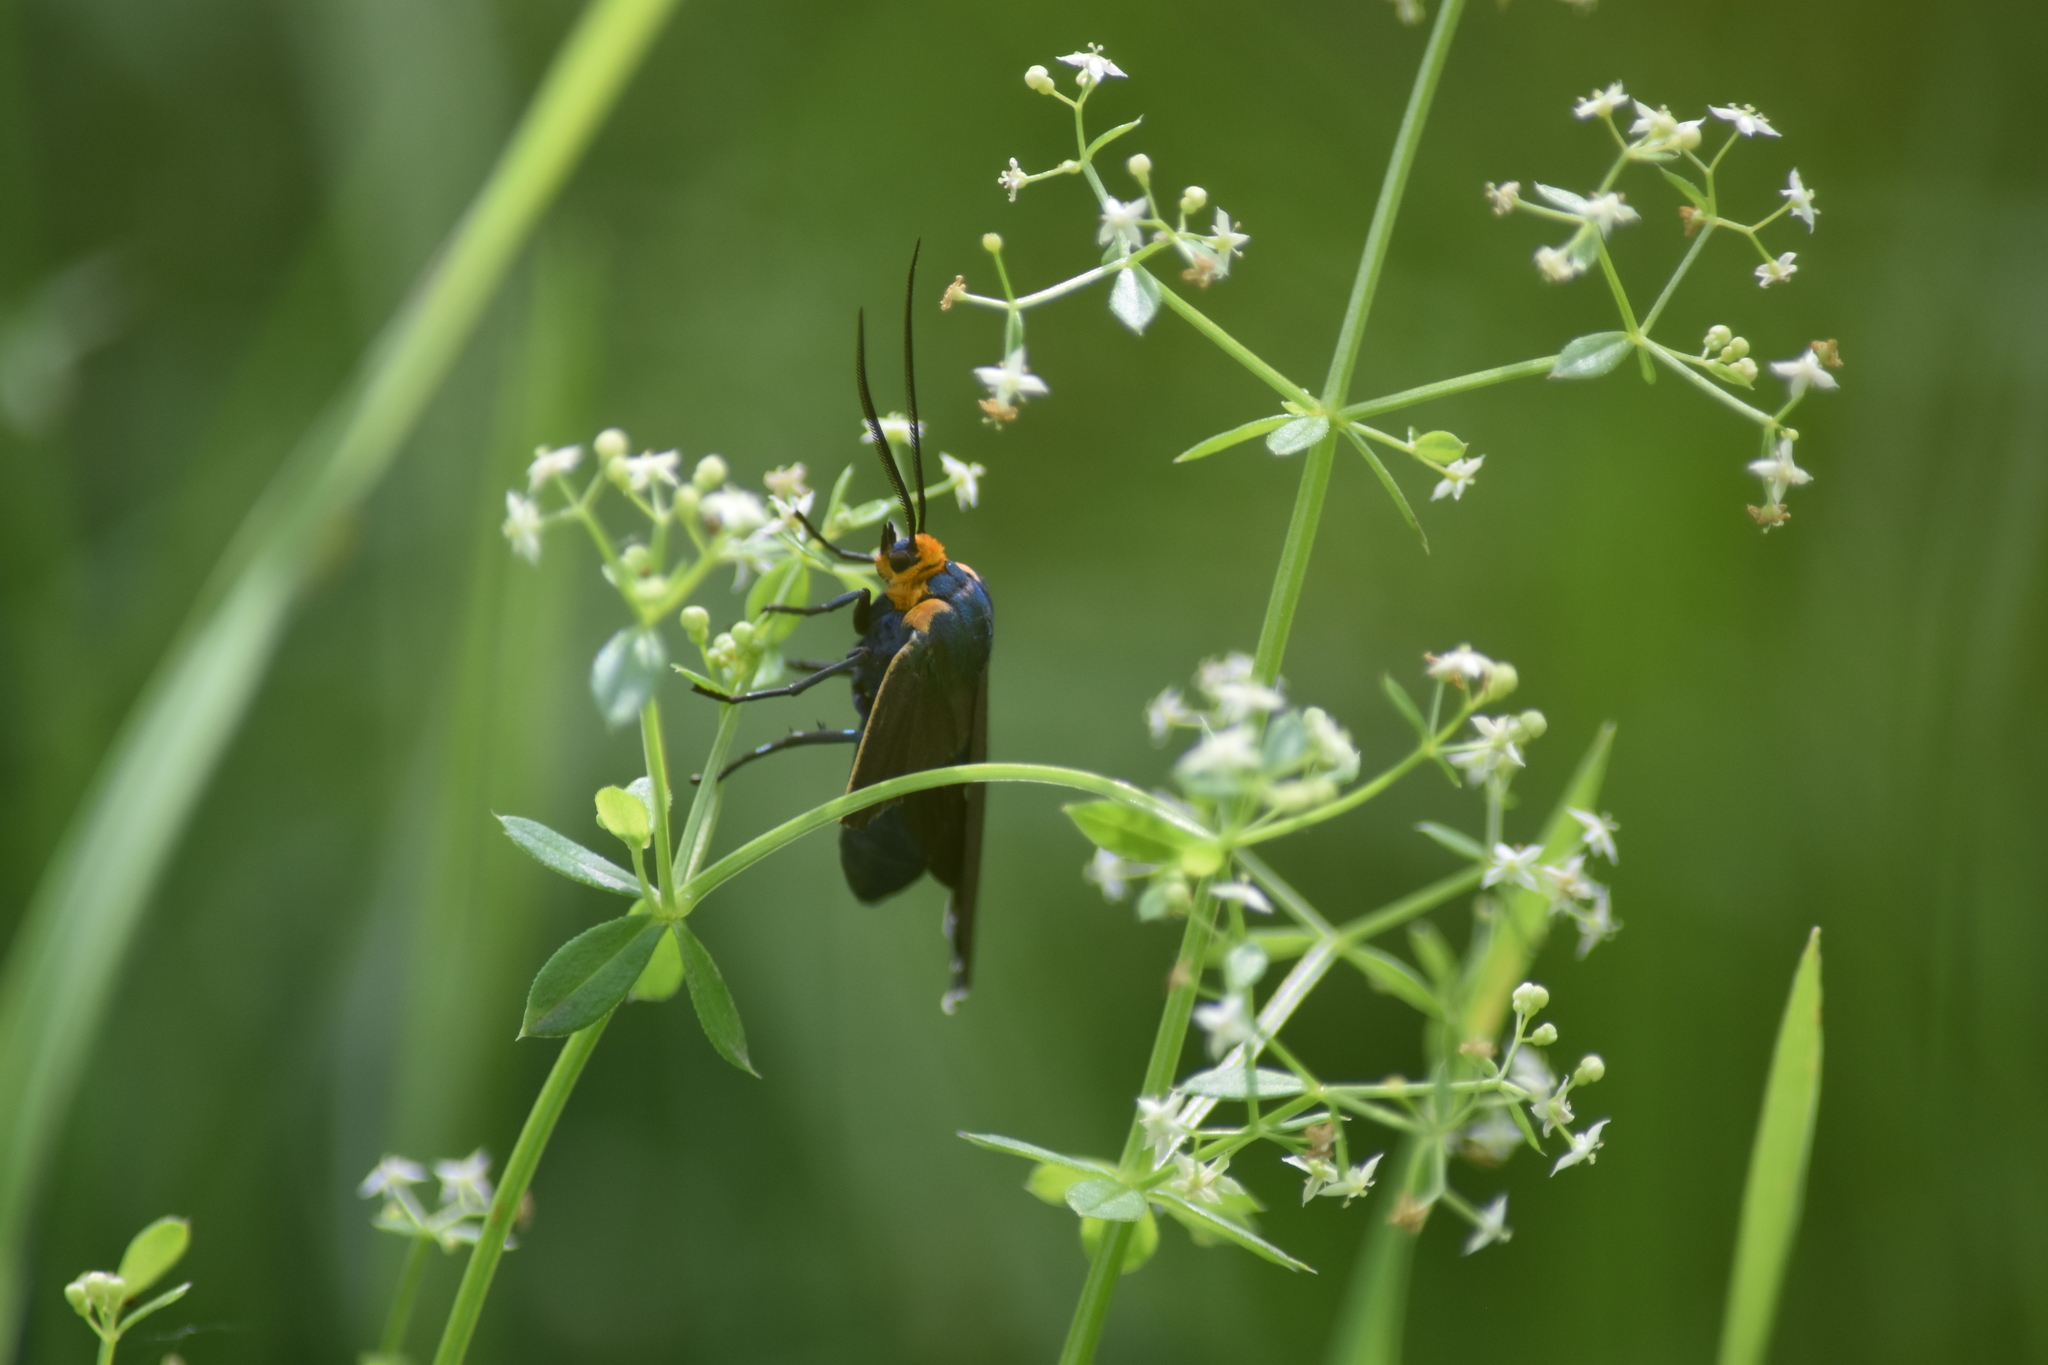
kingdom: Animalia
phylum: Arthropoda
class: Insecta
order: Lepidoptera
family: Erebidae
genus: Ctenucha
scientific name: Ctenucha virginica
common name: Virginia ctenucha moth
